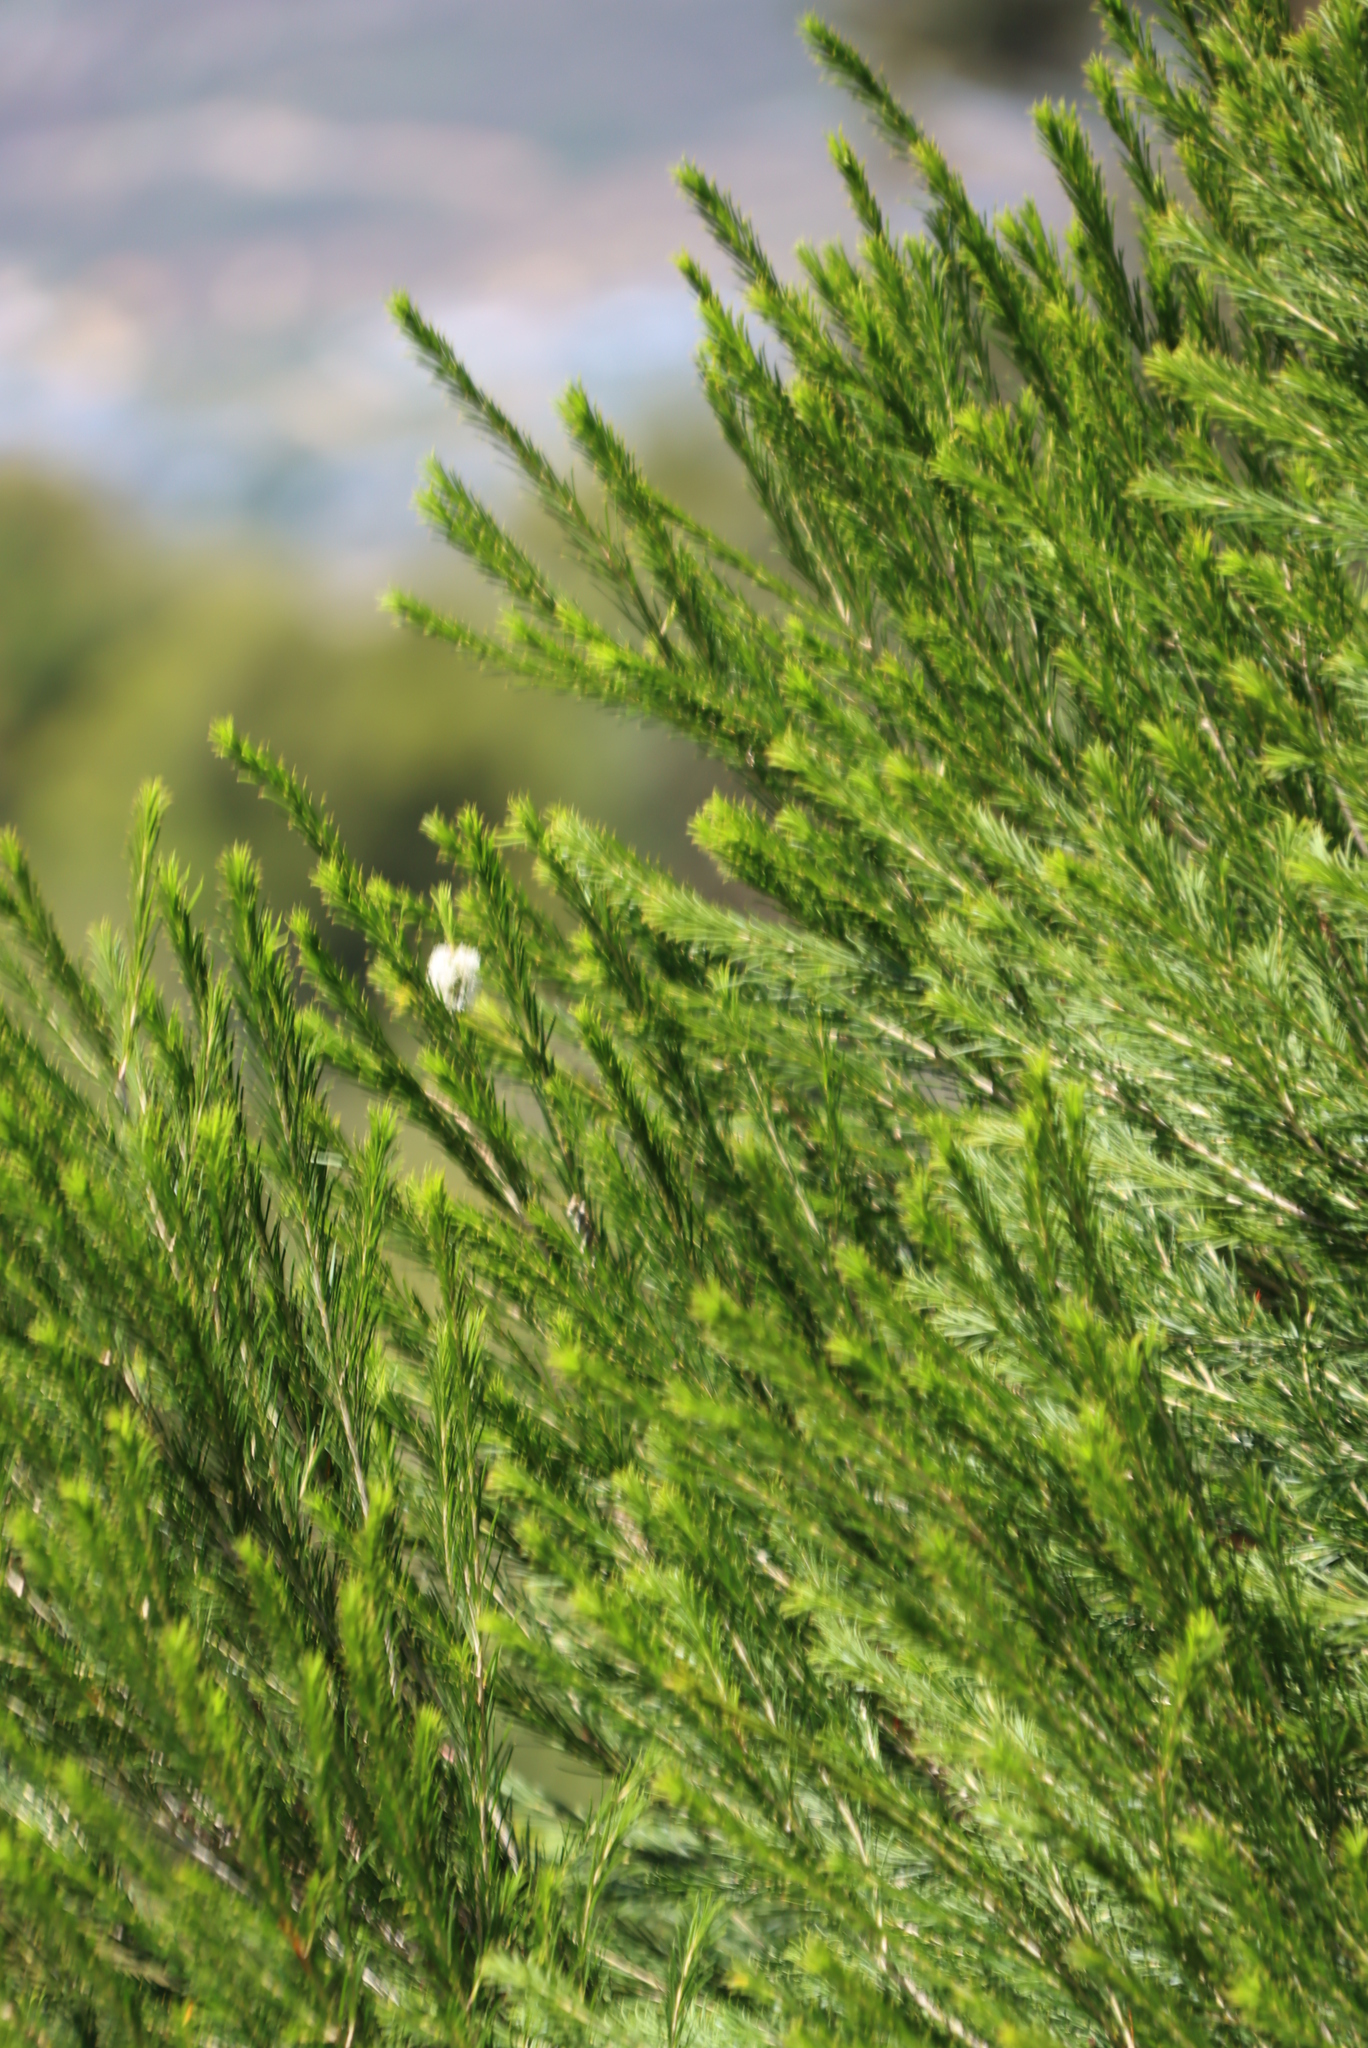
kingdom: Plantae
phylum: Tracheophyta
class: Magnoliopsida
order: Myrtales
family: Myrtaceae
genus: Melaleuca
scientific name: Melaleuca armillaris
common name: Bracelet honey myrtle
